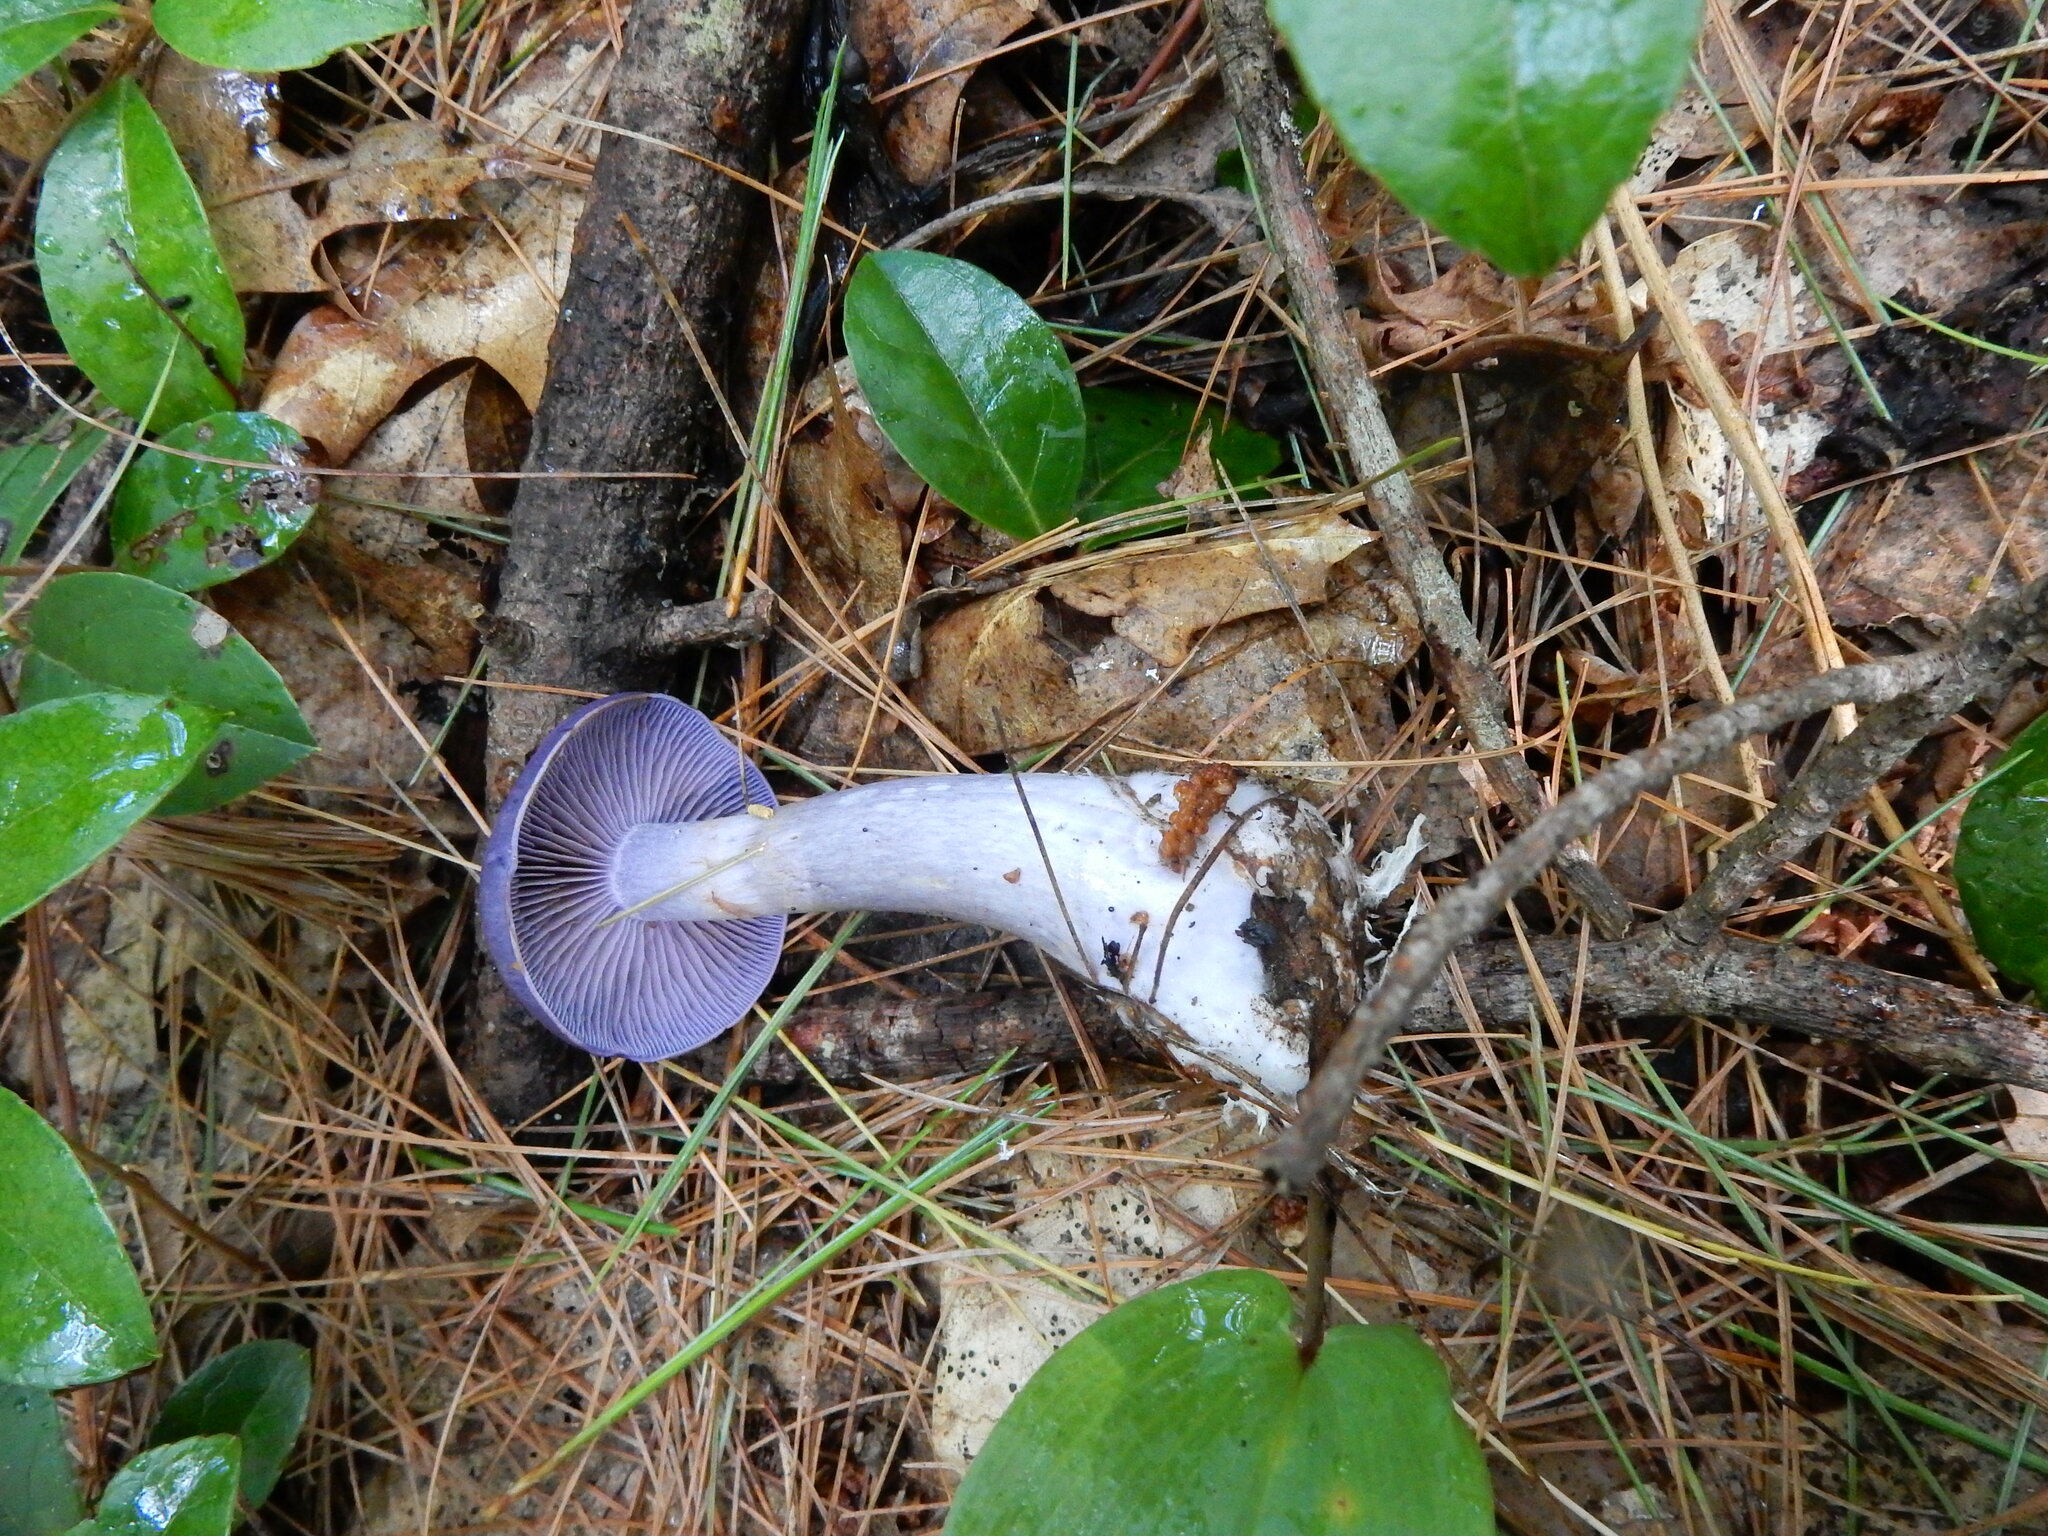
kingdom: Fungi
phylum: Basidiomycota
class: Agaricomycetes
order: Agaricales
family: Cortinariaceae
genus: Cortinarius
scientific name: Cortinarius iodes
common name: Viscid violet cort
